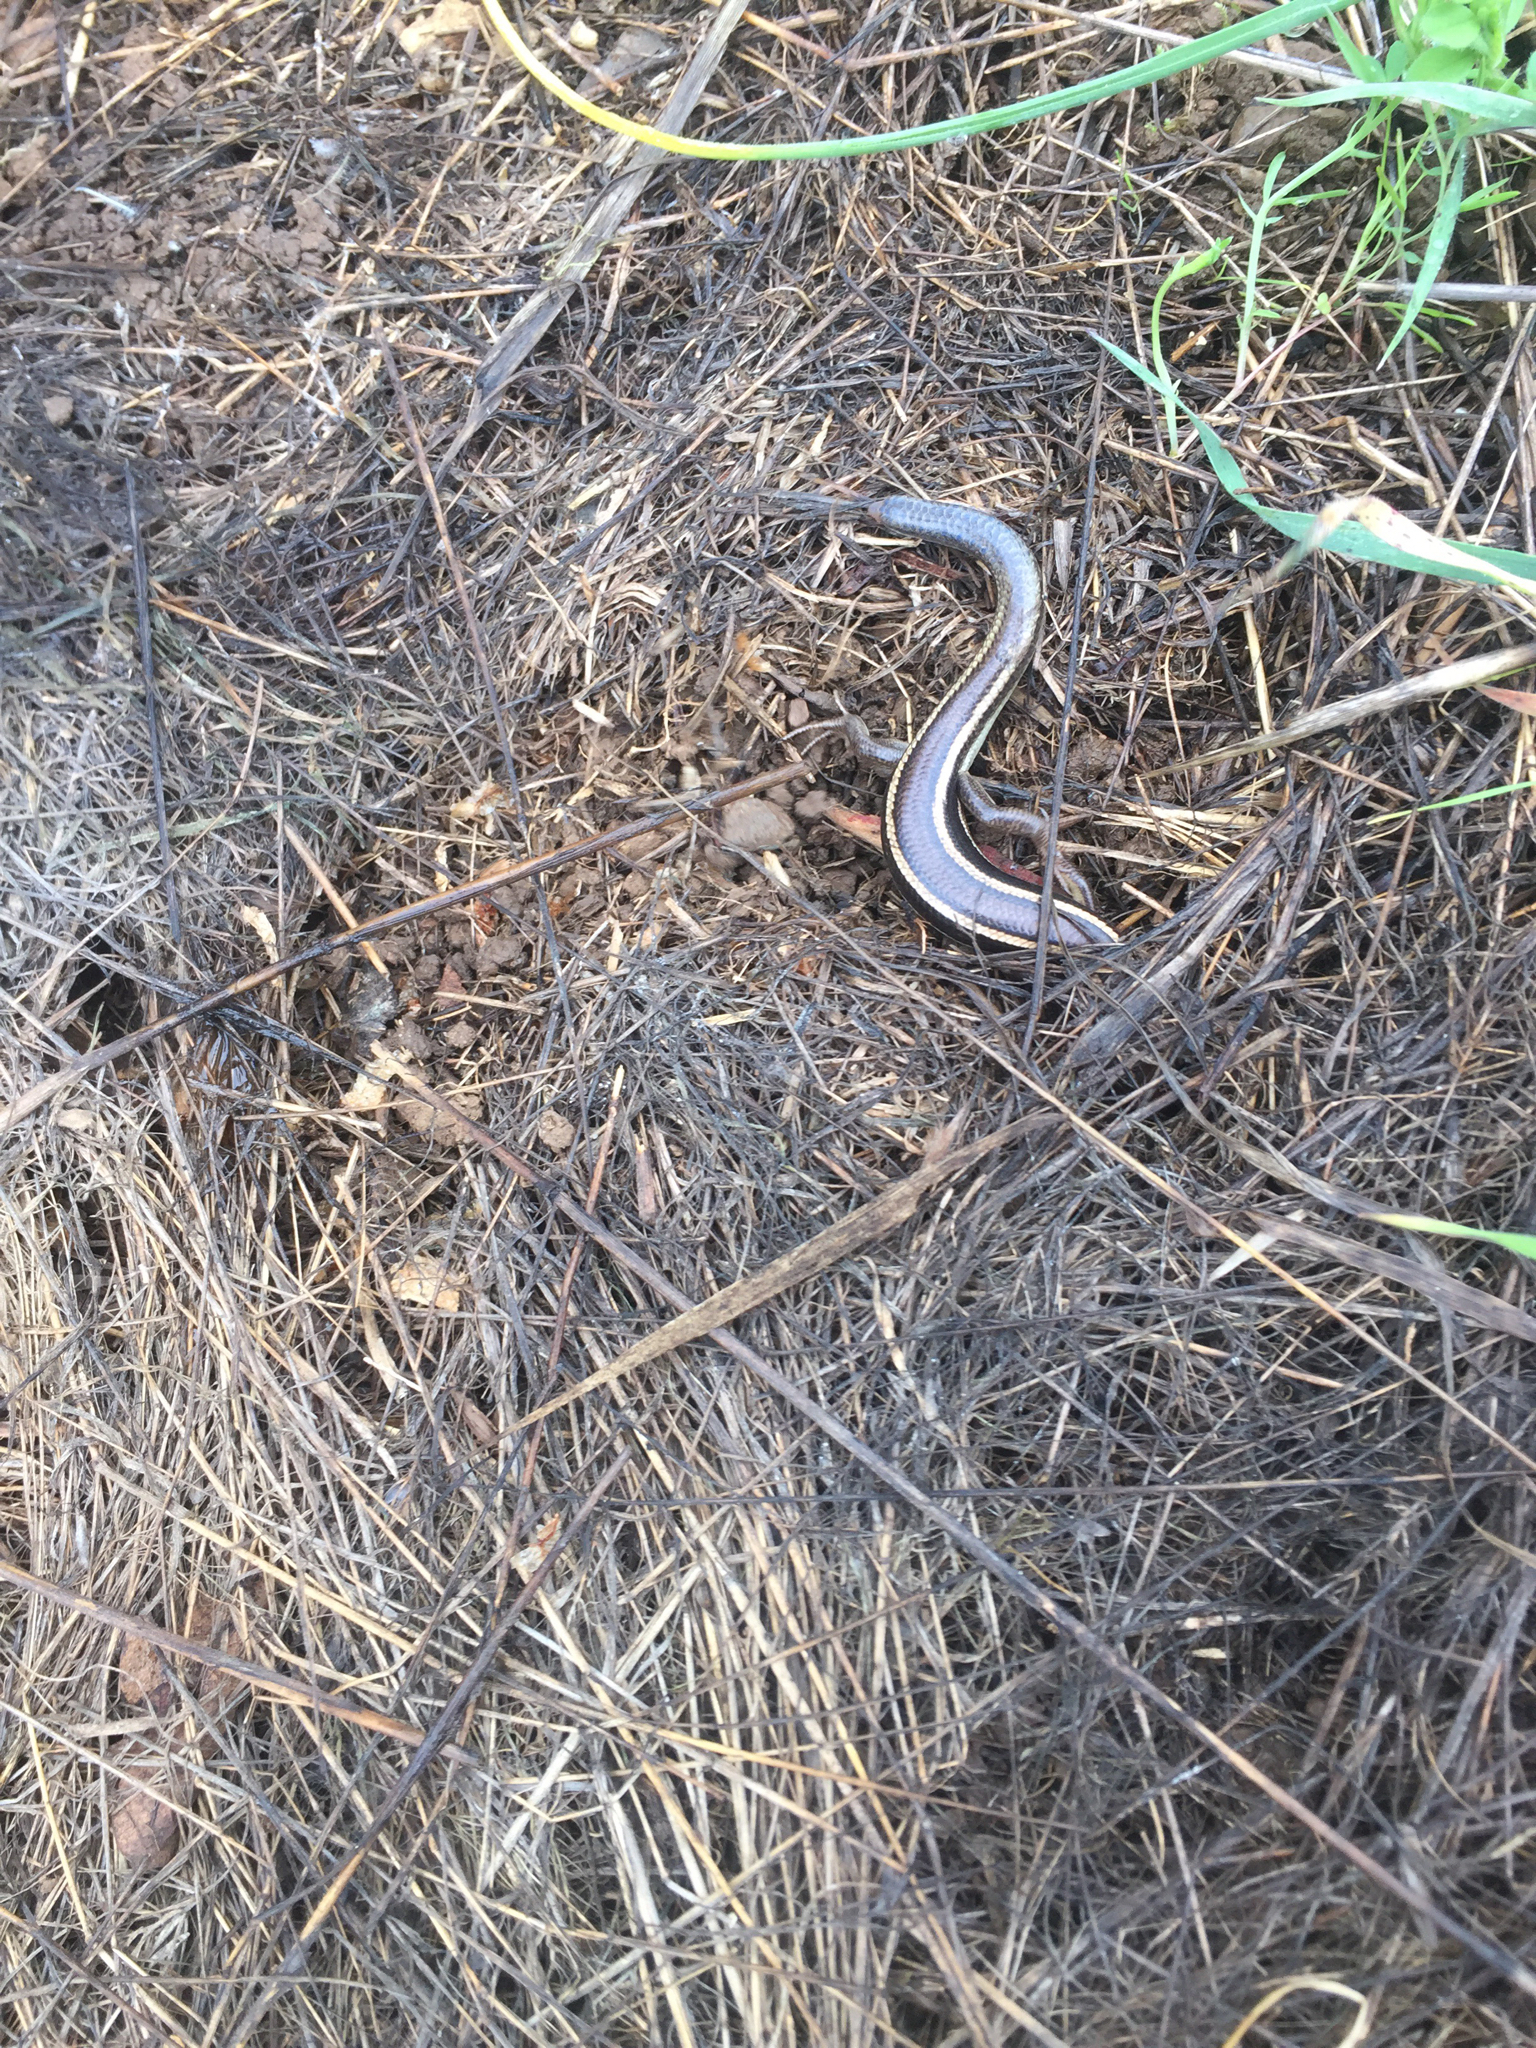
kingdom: Animalia
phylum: Chordata
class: Squamata
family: Scincidae
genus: Plestiodon
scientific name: Plestiodon skiltonianus
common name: Coronado island skink [interparietalis]
